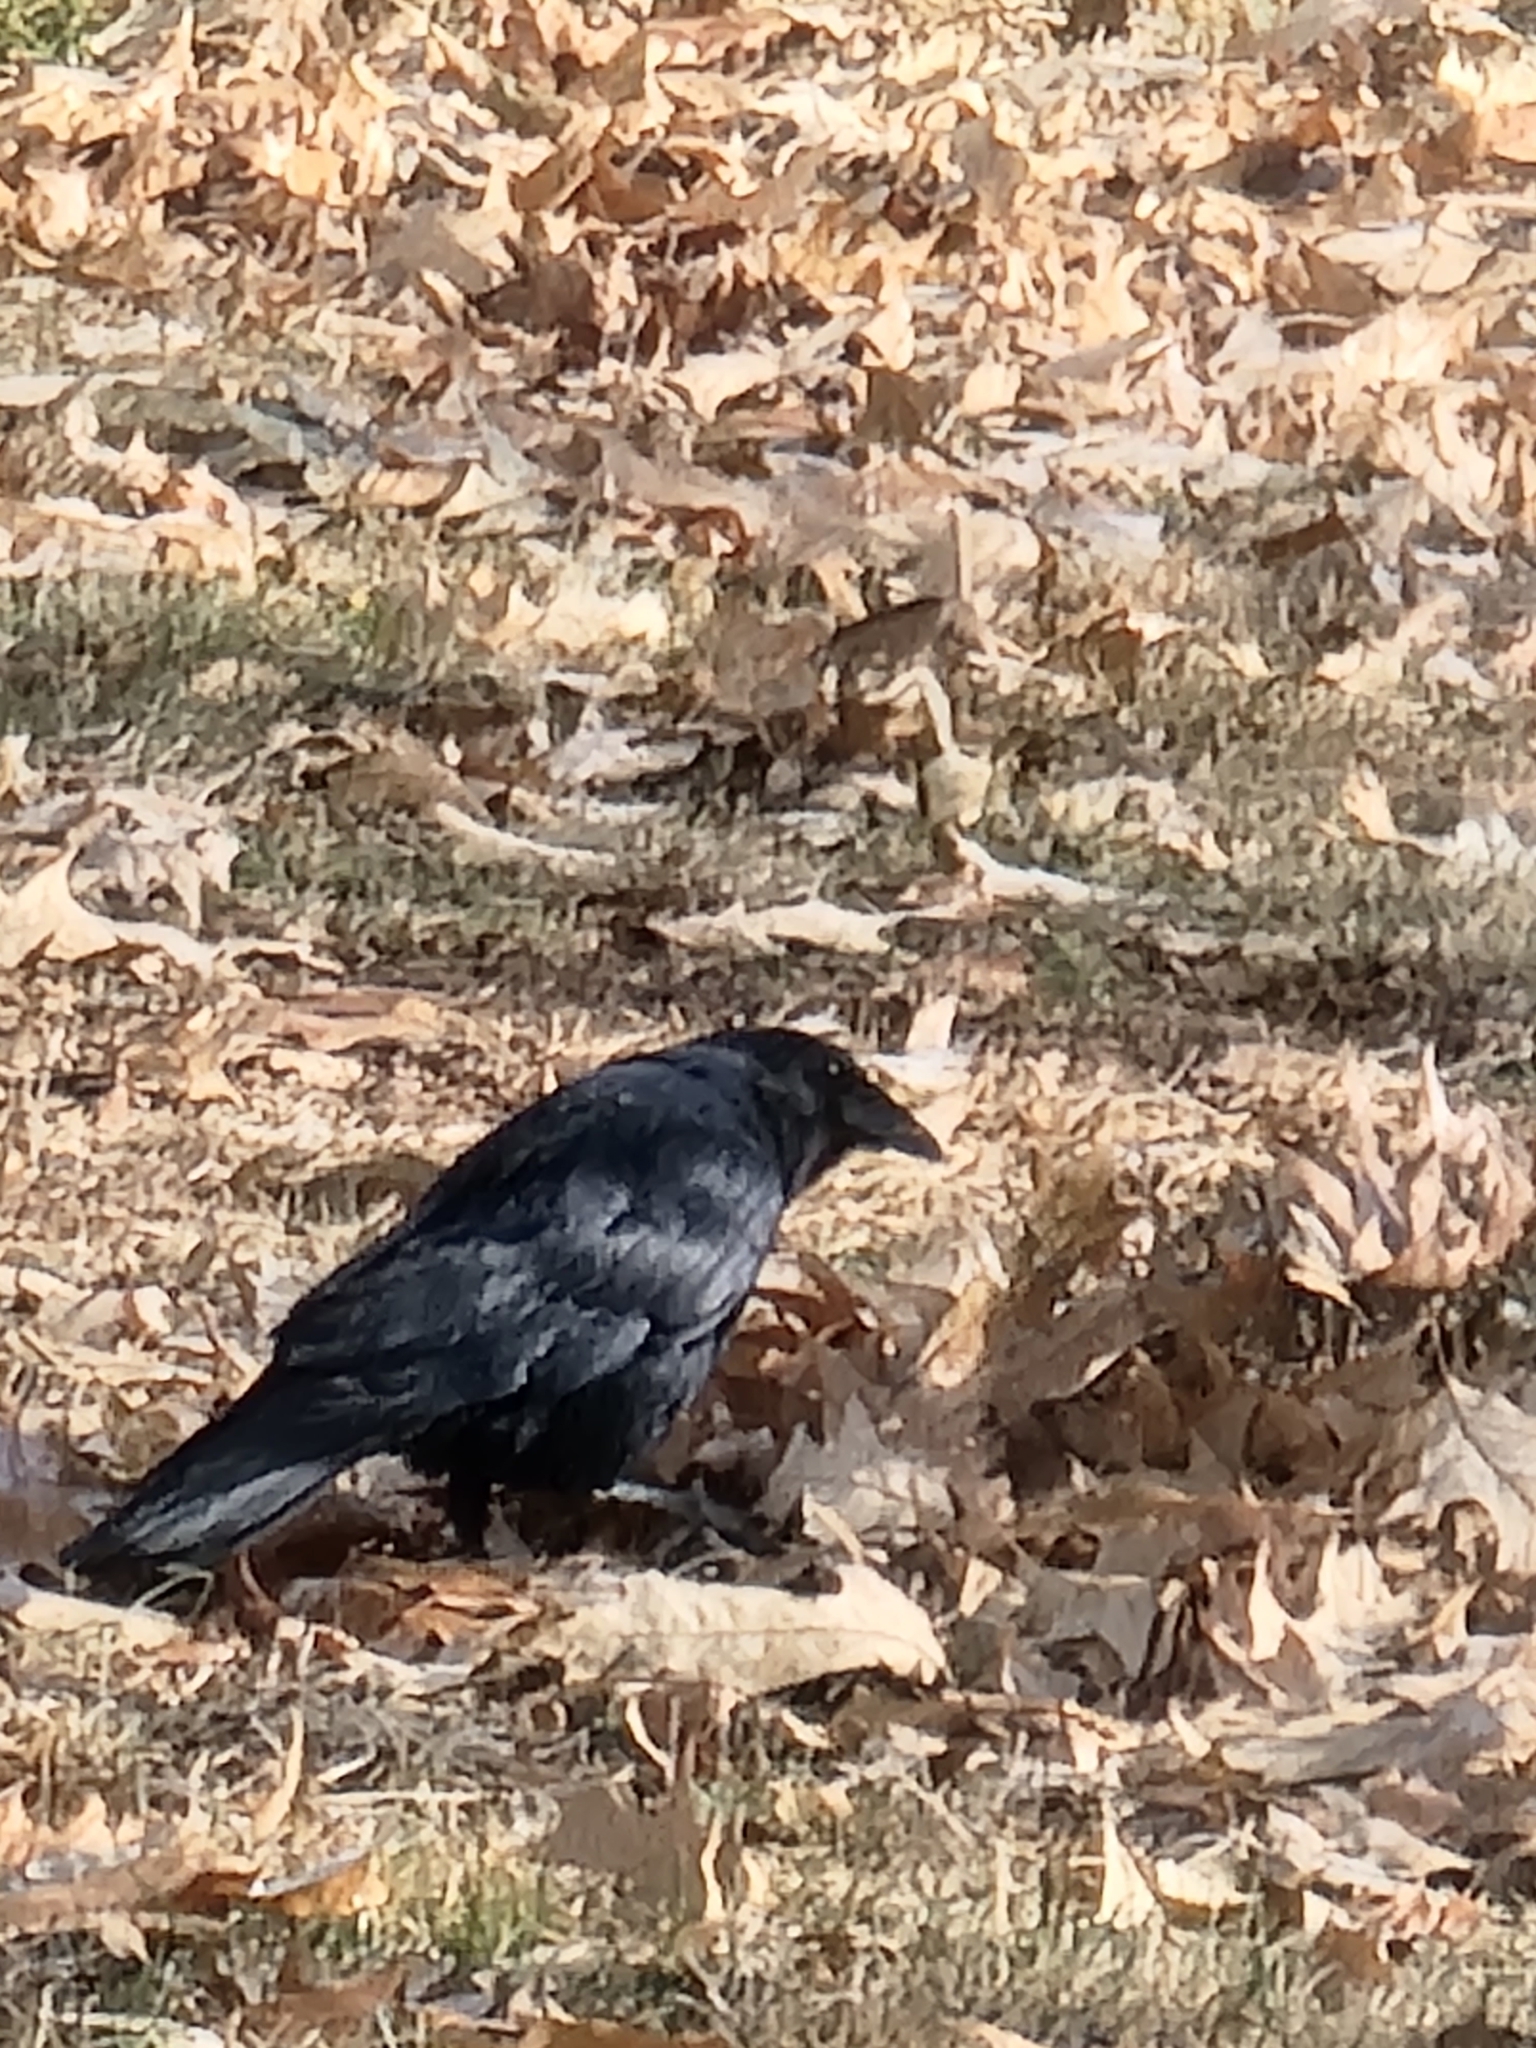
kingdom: Animalia
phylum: Chordata
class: Aves
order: Passeriformes
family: Corvidae
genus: Corvus
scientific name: Corvus brachyrhynchos
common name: American crow
